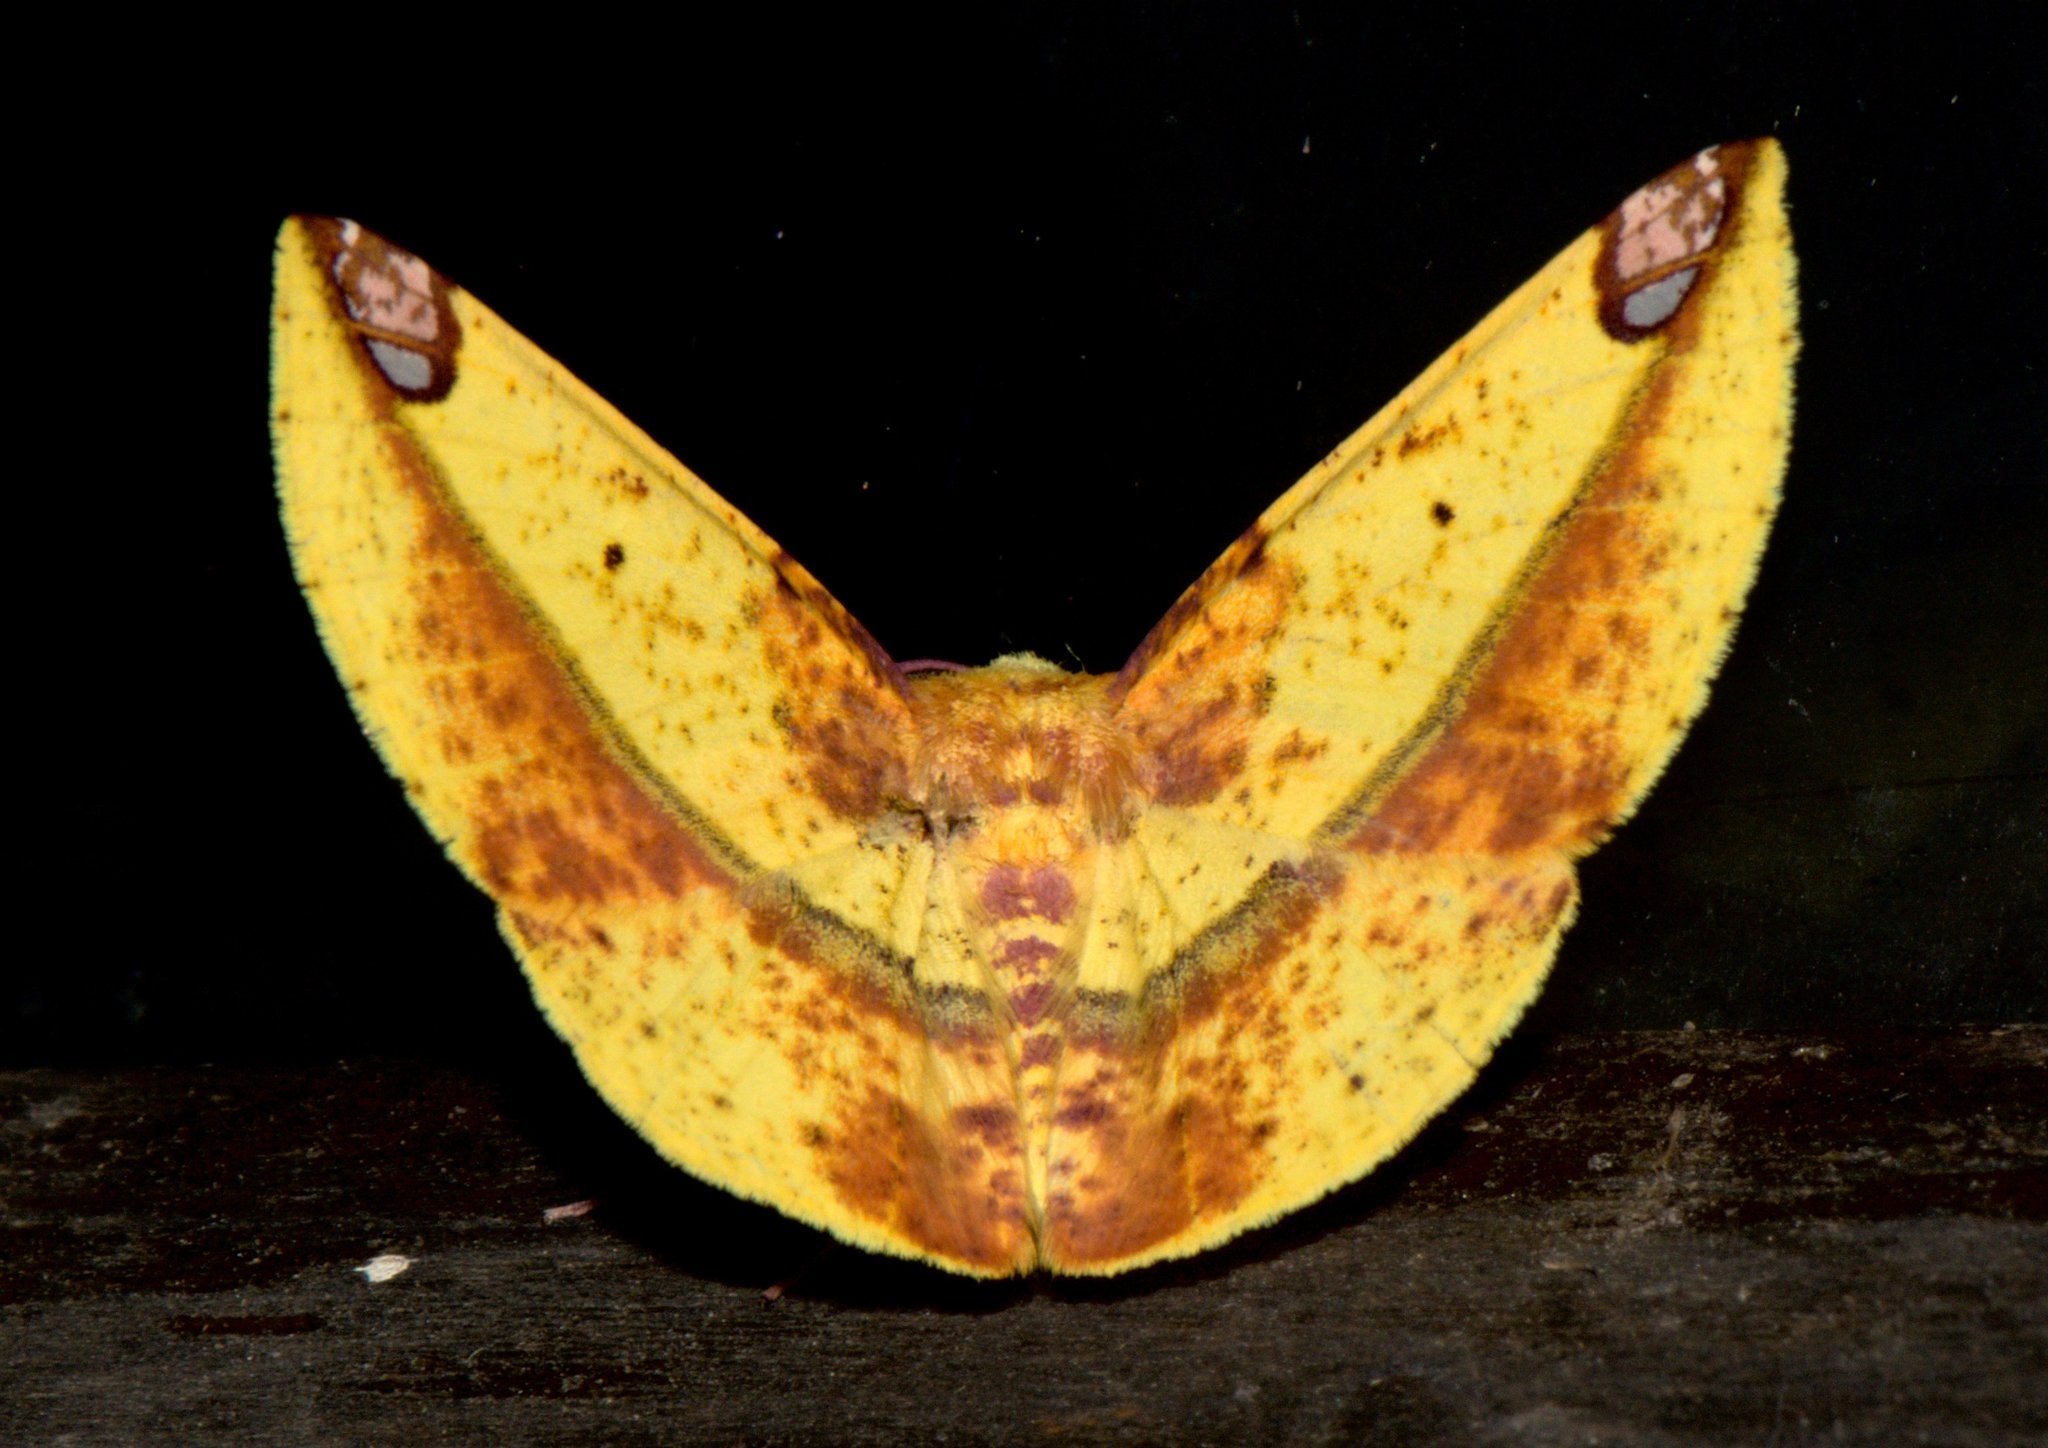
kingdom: Animalia
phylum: Arthropoda
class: Insecta
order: Lepidoptera
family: Geometridae
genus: Mimomiza
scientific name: Mimomiza cruentaria
